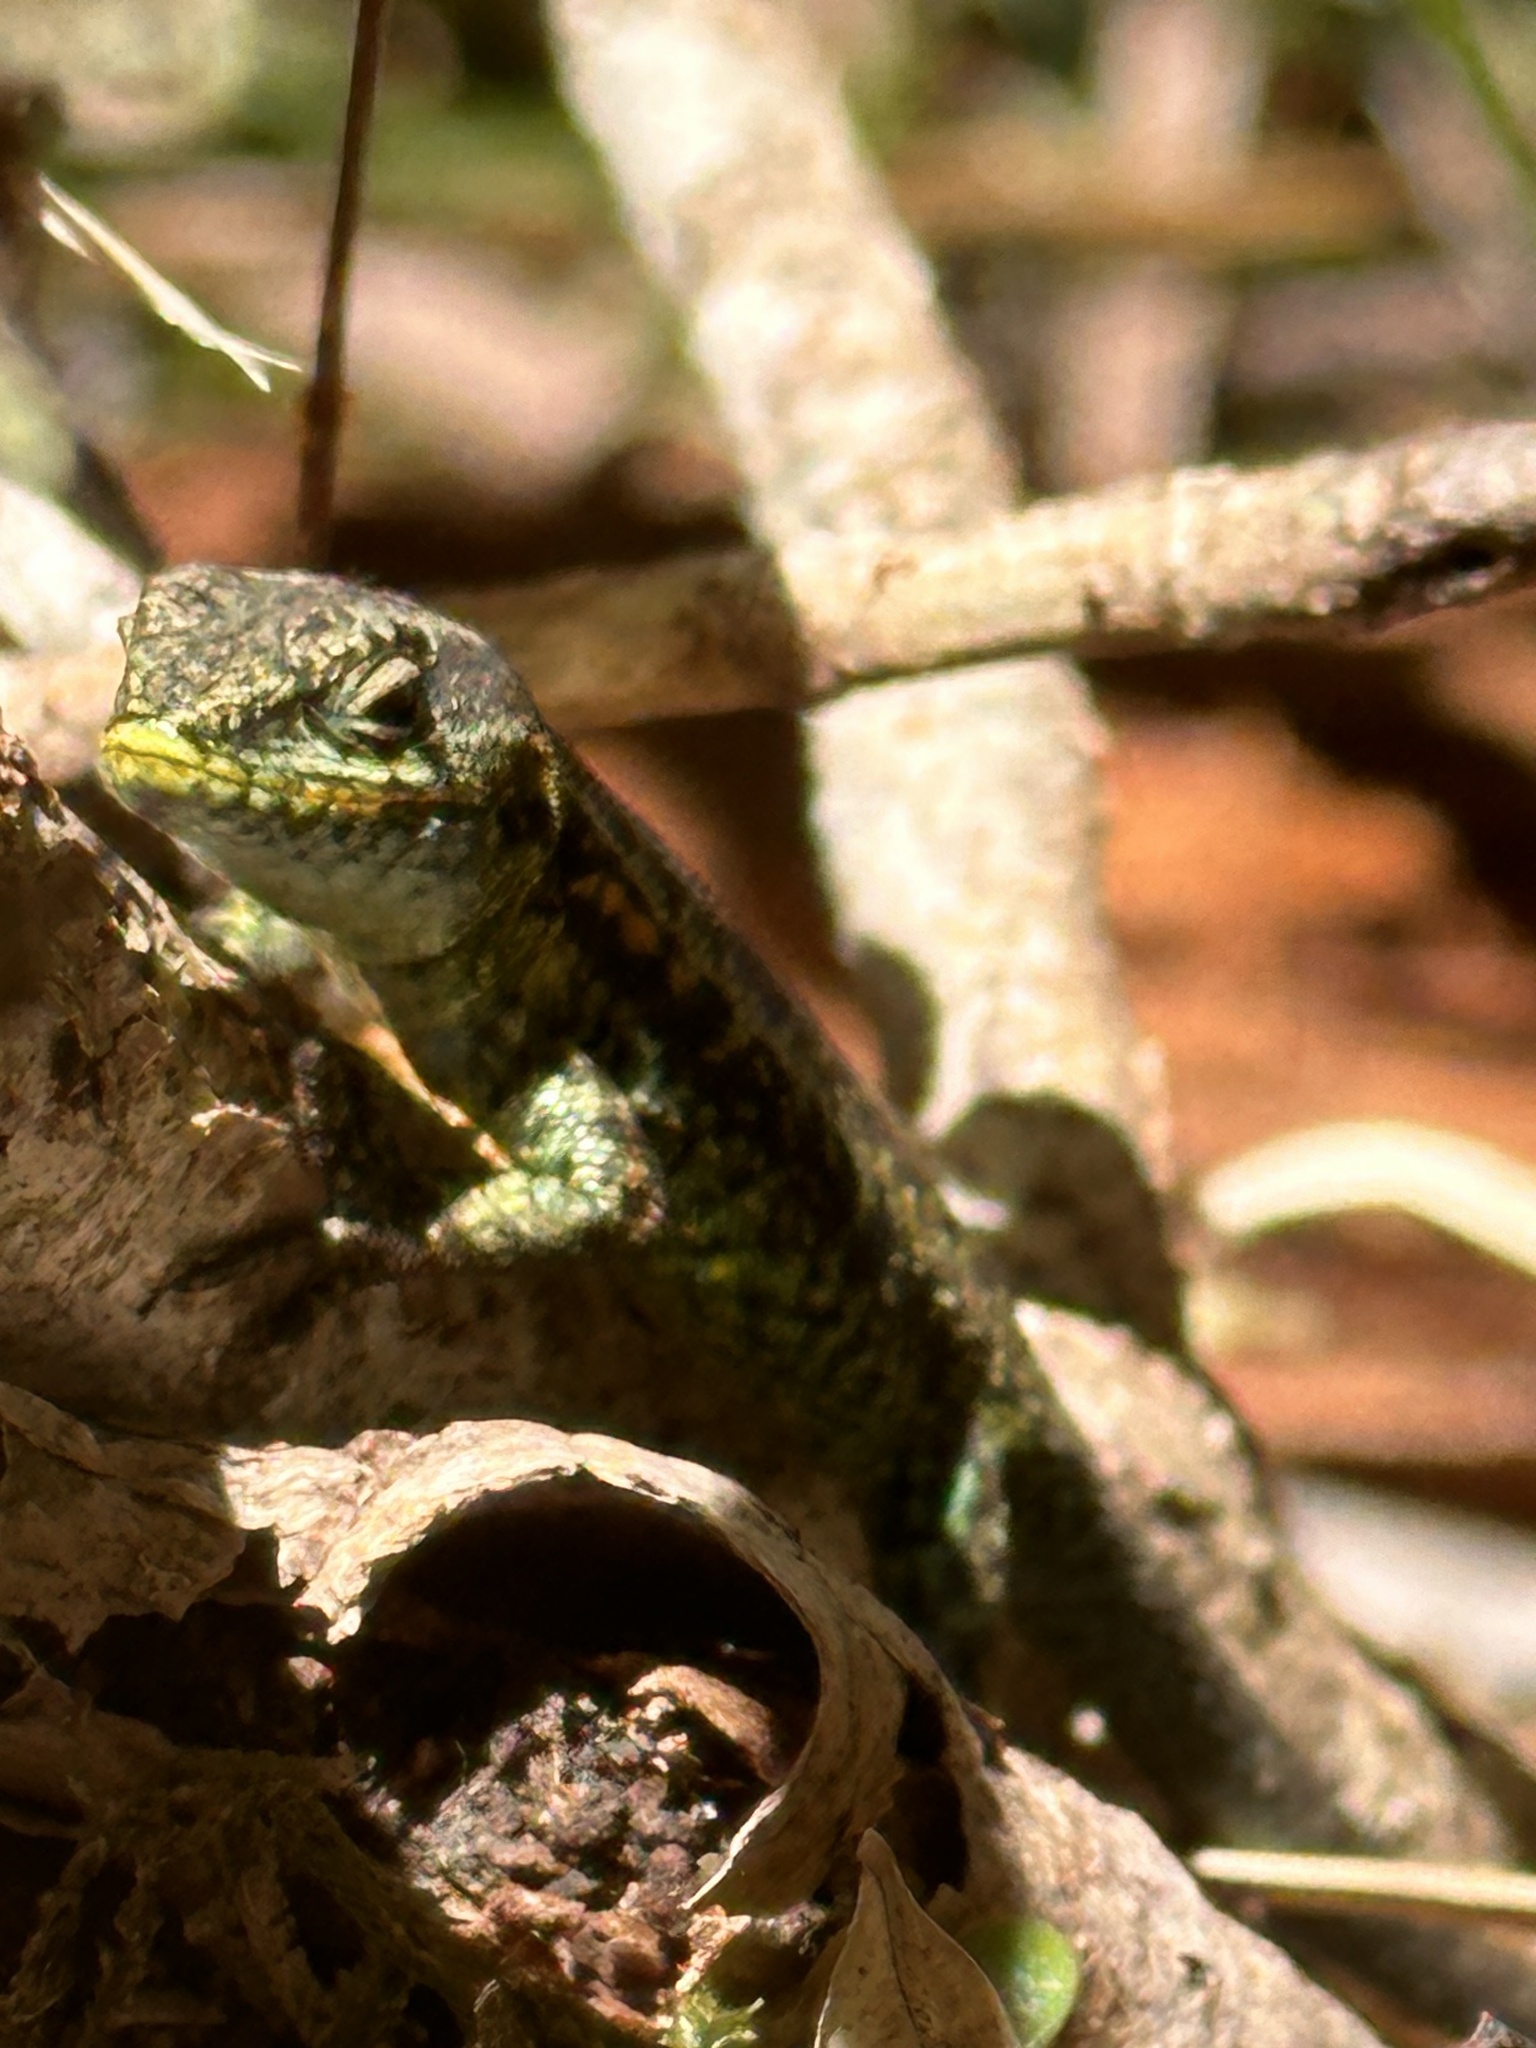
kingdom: Animalia
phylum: Chordata
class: Squamata
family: Liolaemidae
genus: Liolaemus
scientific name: Liolaemus pictus
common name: Painted tree iguana
